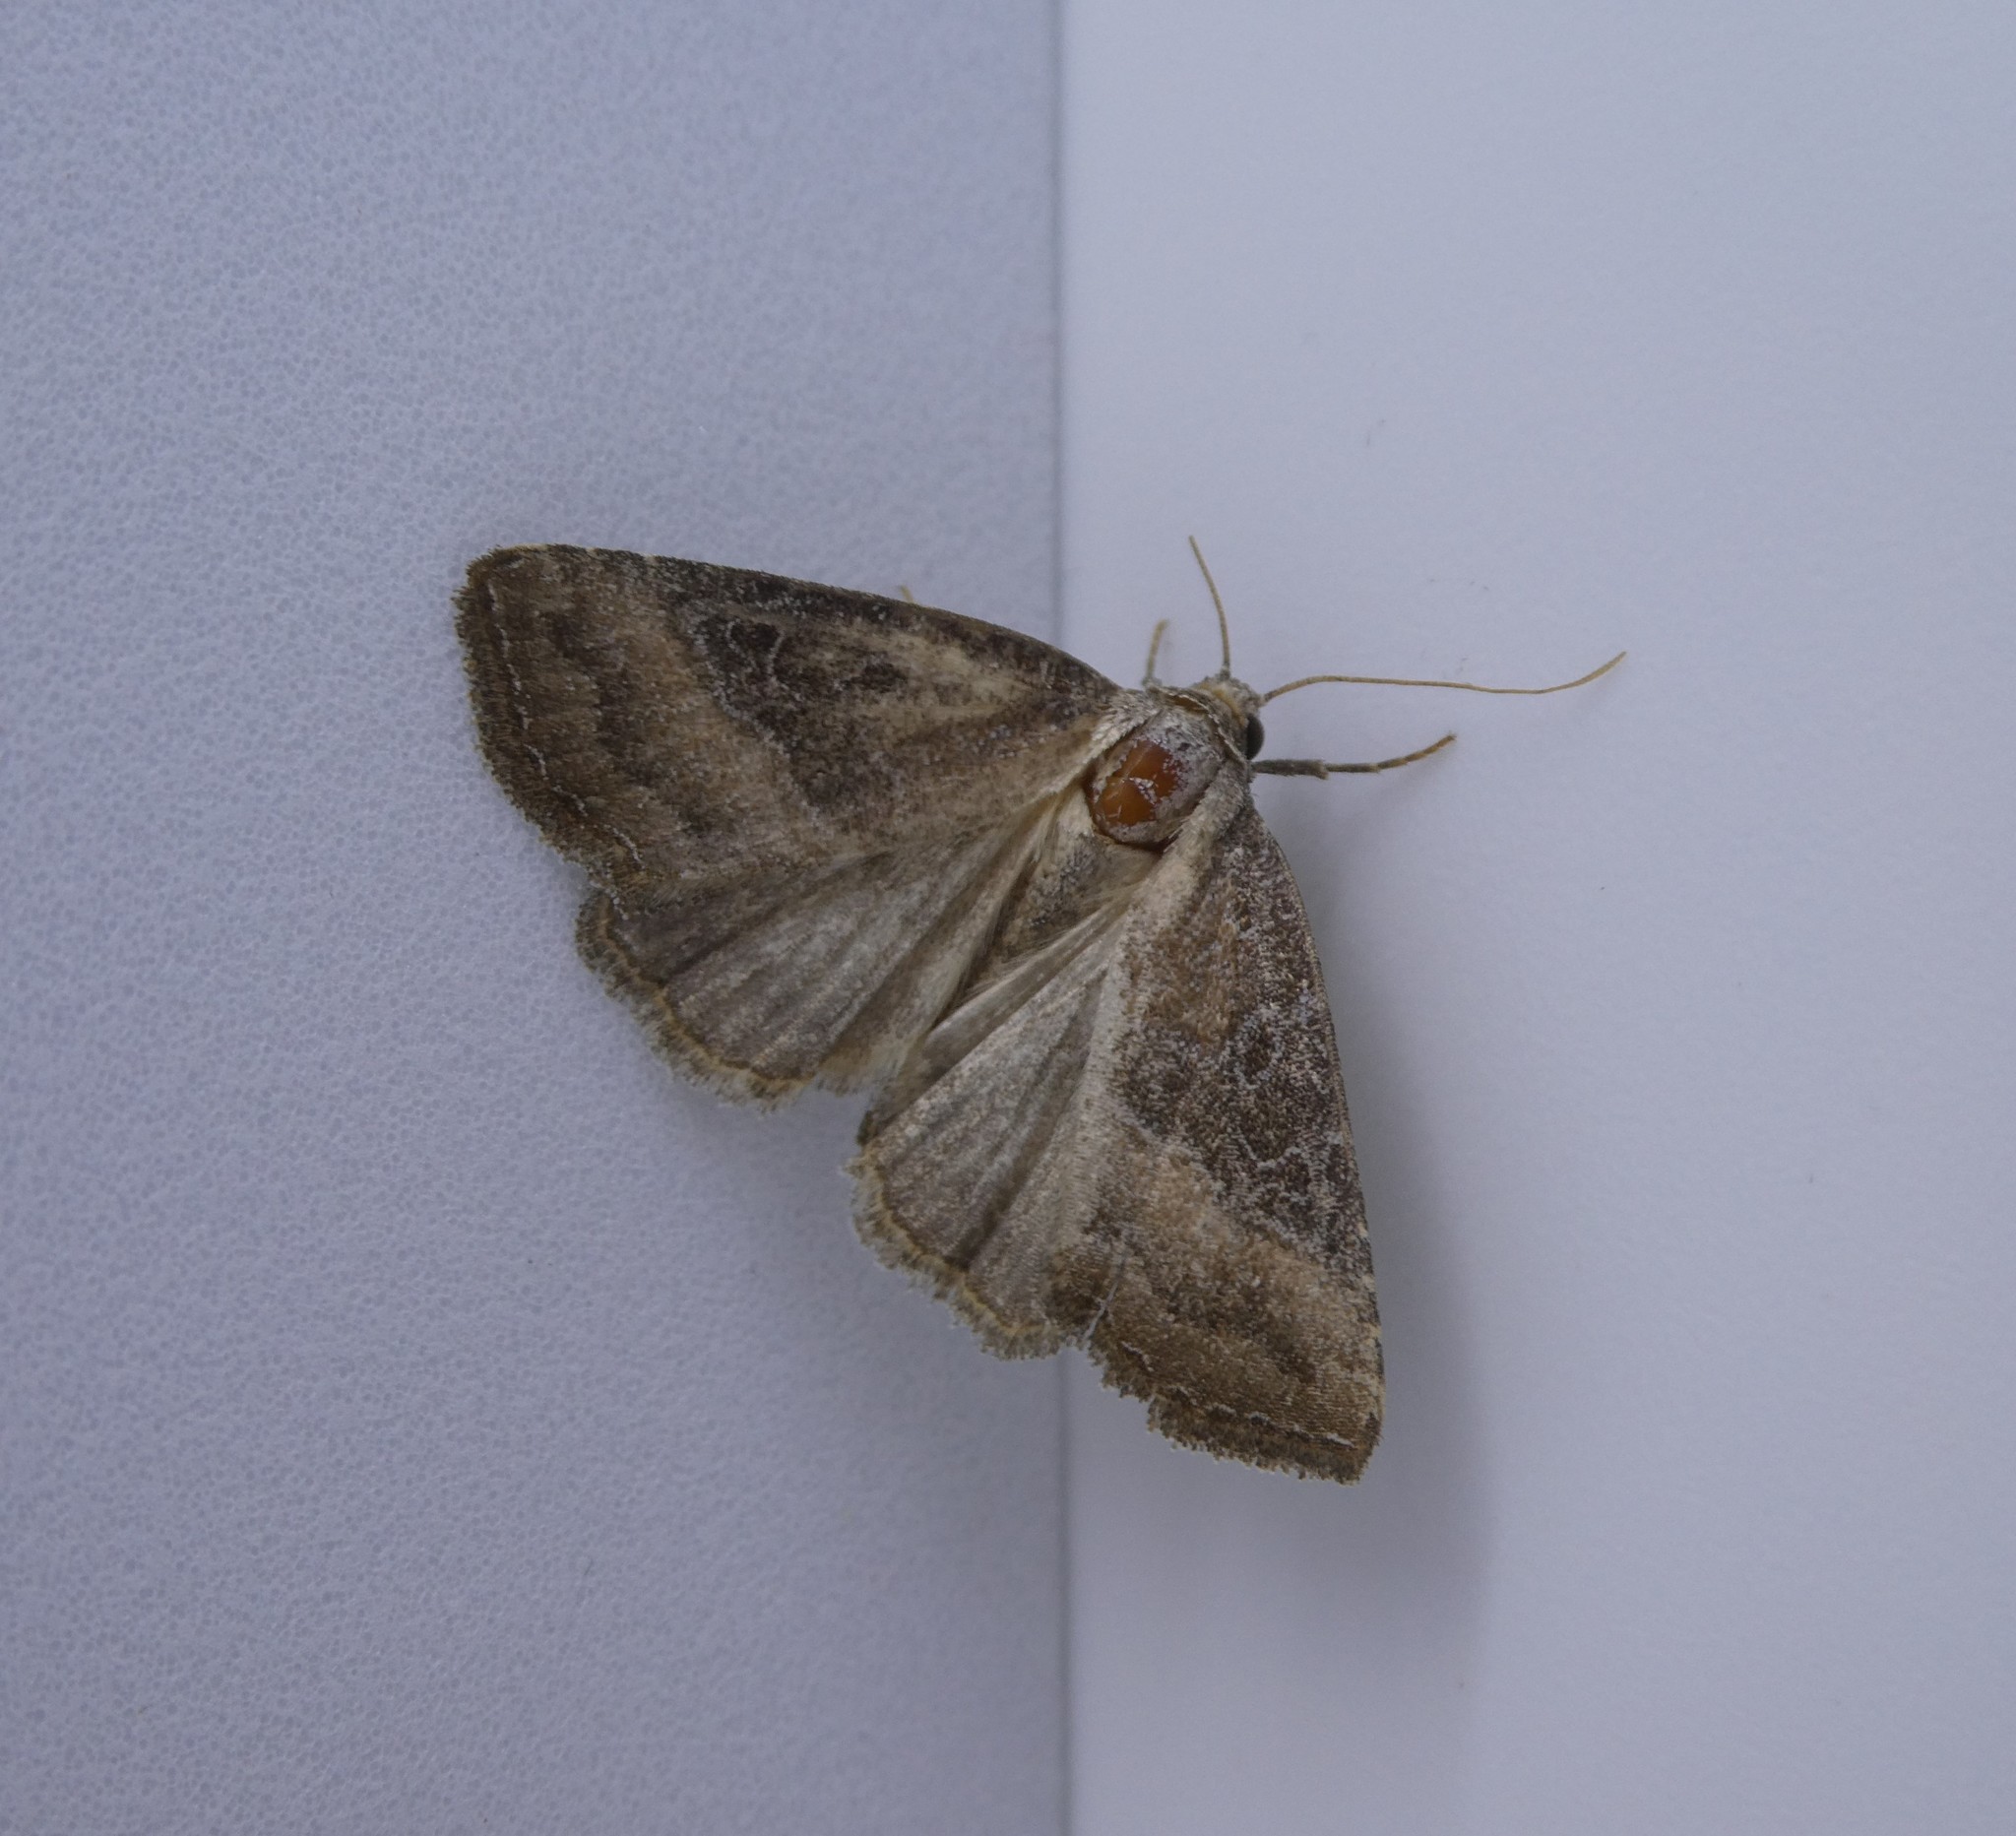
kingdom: Animalia
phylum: Arthropoda
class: Insecta
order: Lepidoptera
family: Noctuidae
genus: Ogdoconta
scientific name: Ogdoconta cinereola
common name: Common pinkband
